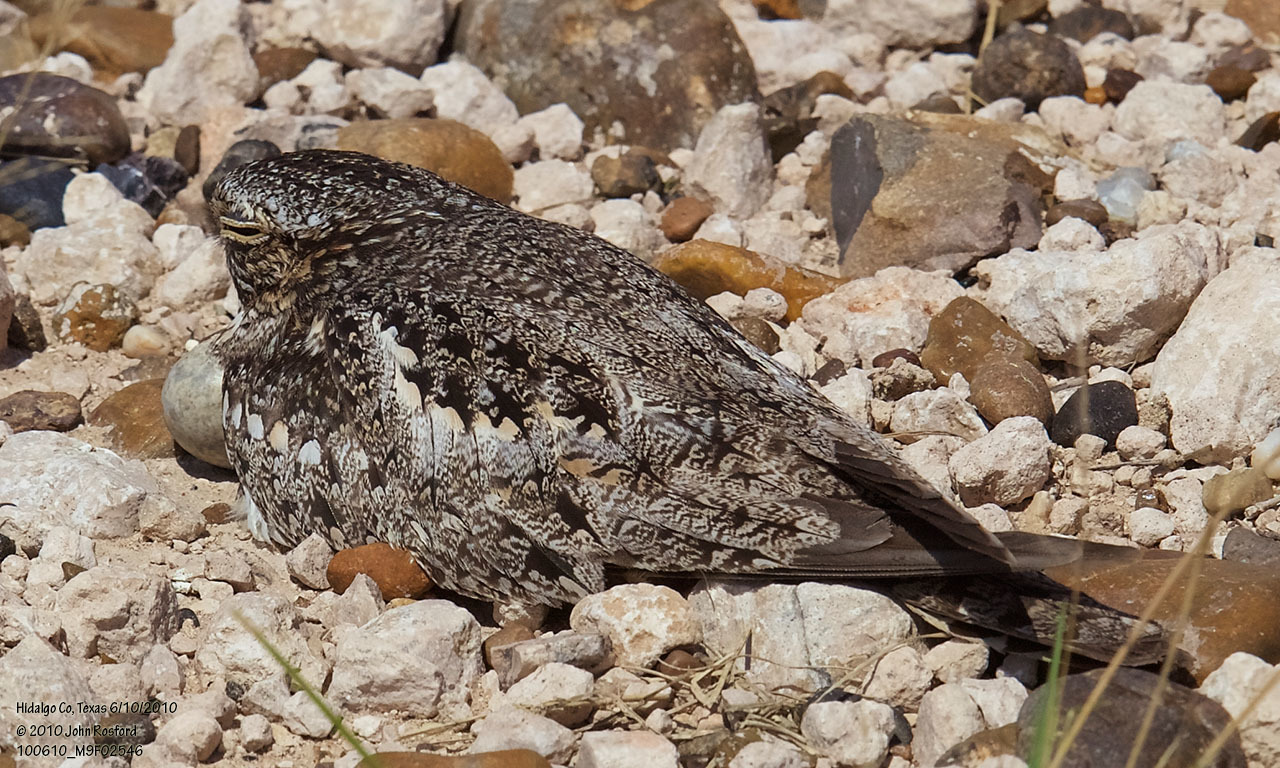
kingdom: Animalia
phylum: Chordata
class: Aves
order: Caprimulgiformes
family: Caprimulgidae
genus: Chordeiles
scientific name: Chordeiles acutipennis
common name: Lesser nighthawk
